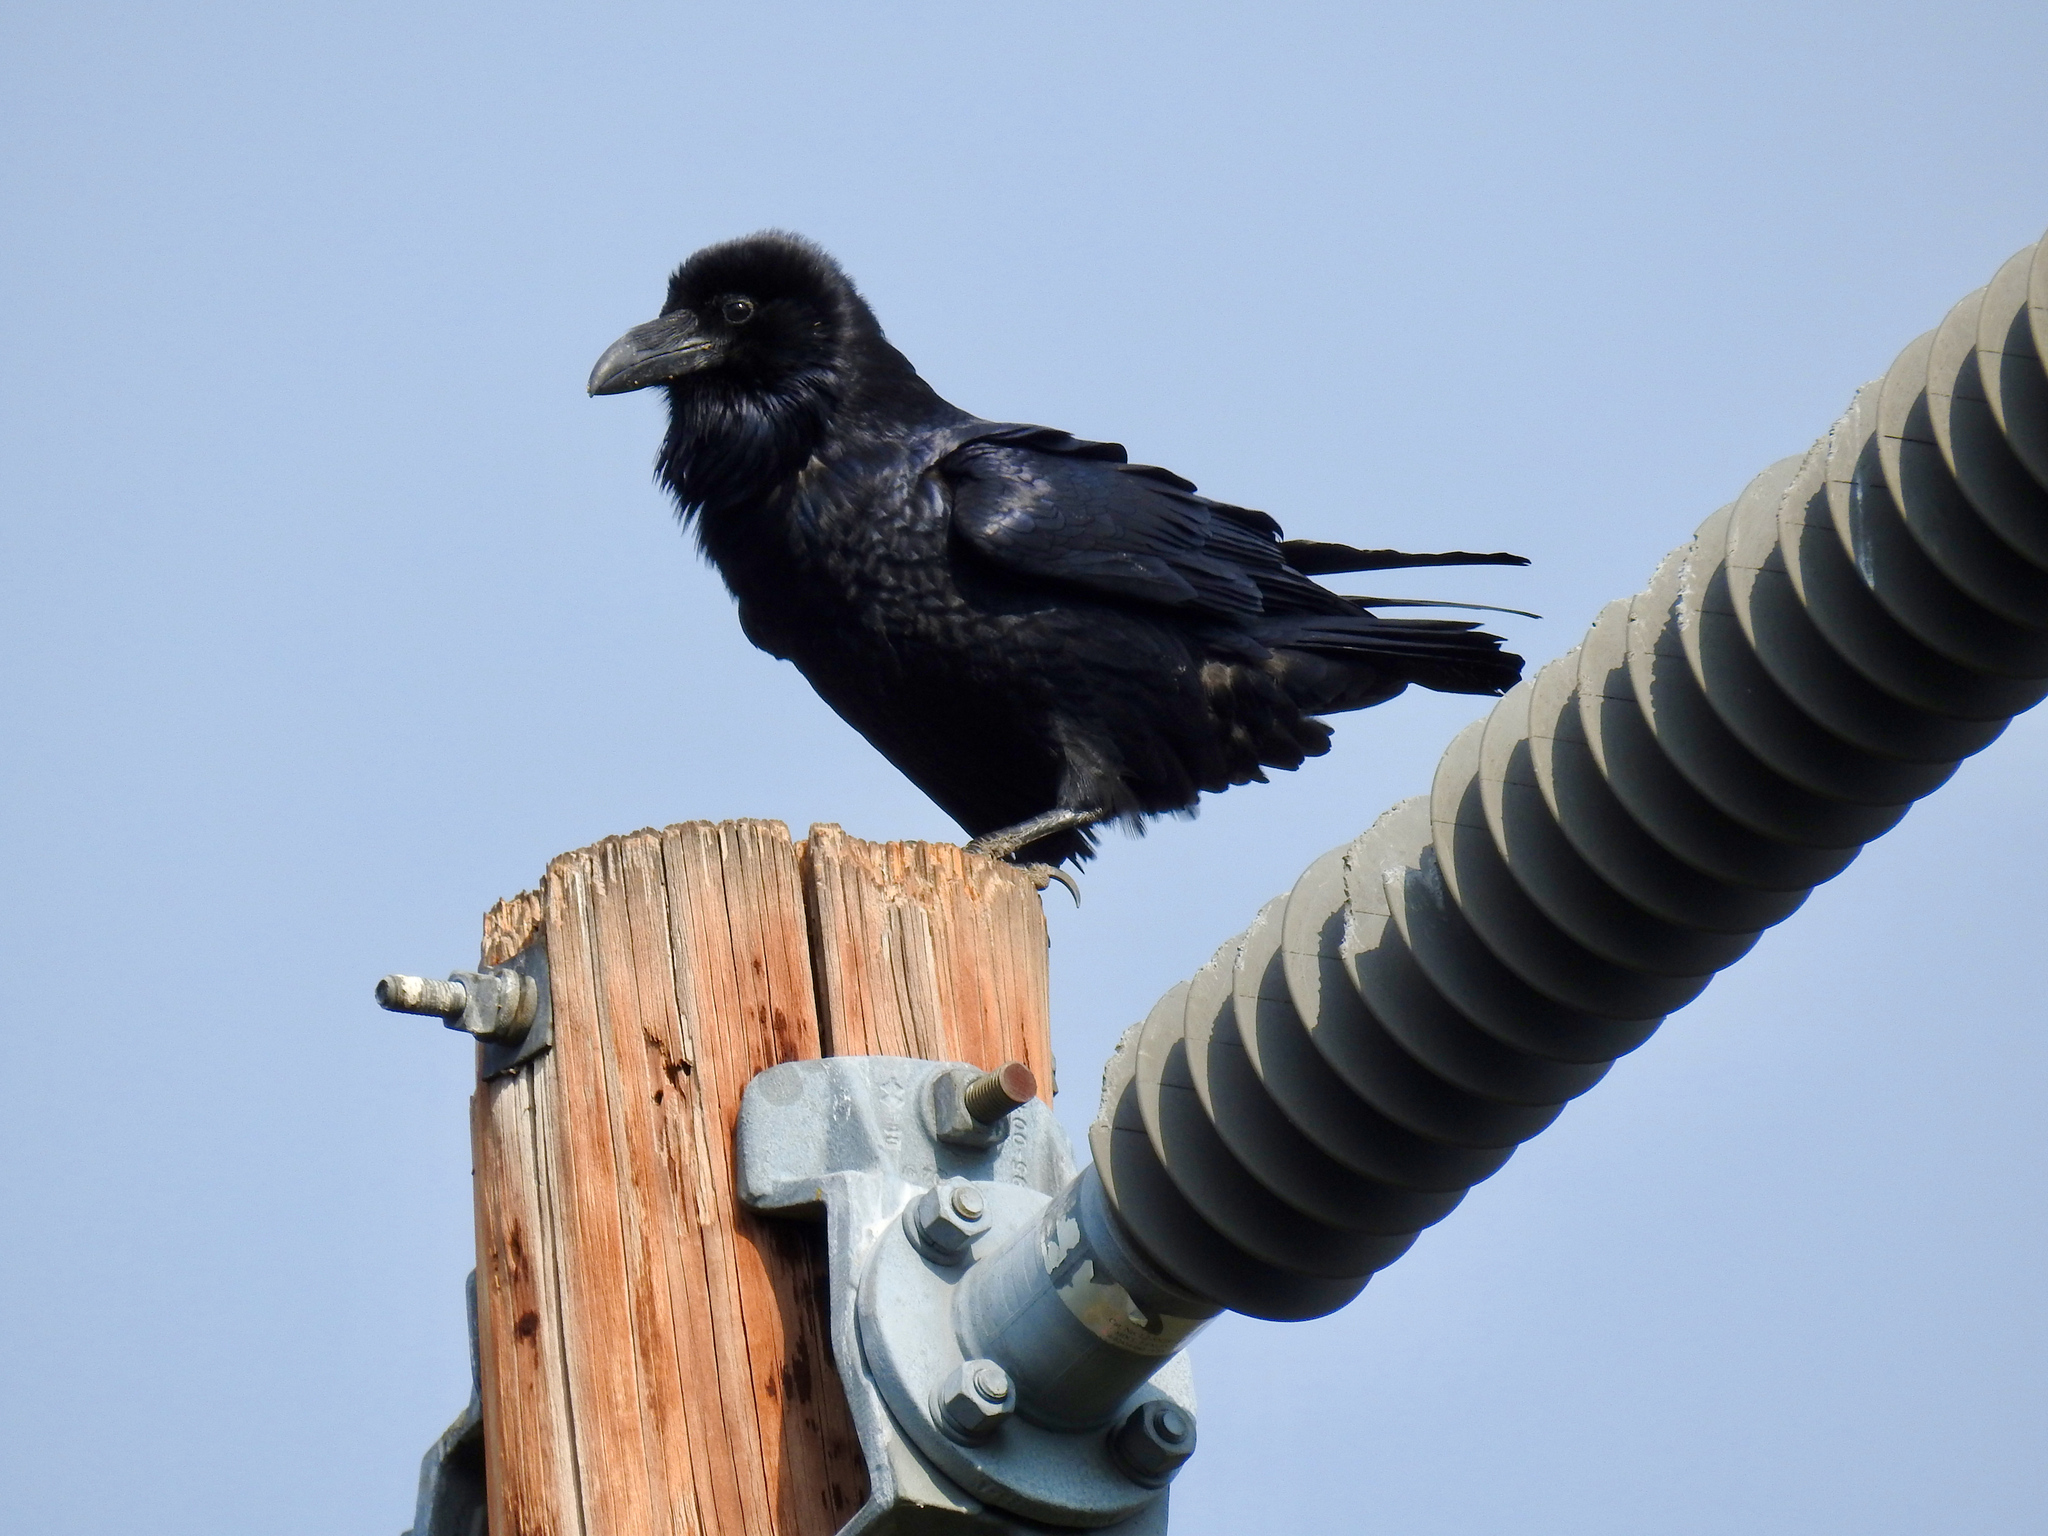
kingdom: Animalia
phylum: Chordata
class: Aves
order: Passeriformes
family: Corvidae
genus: Corvus
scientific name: Corvus corax
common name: Common raven
